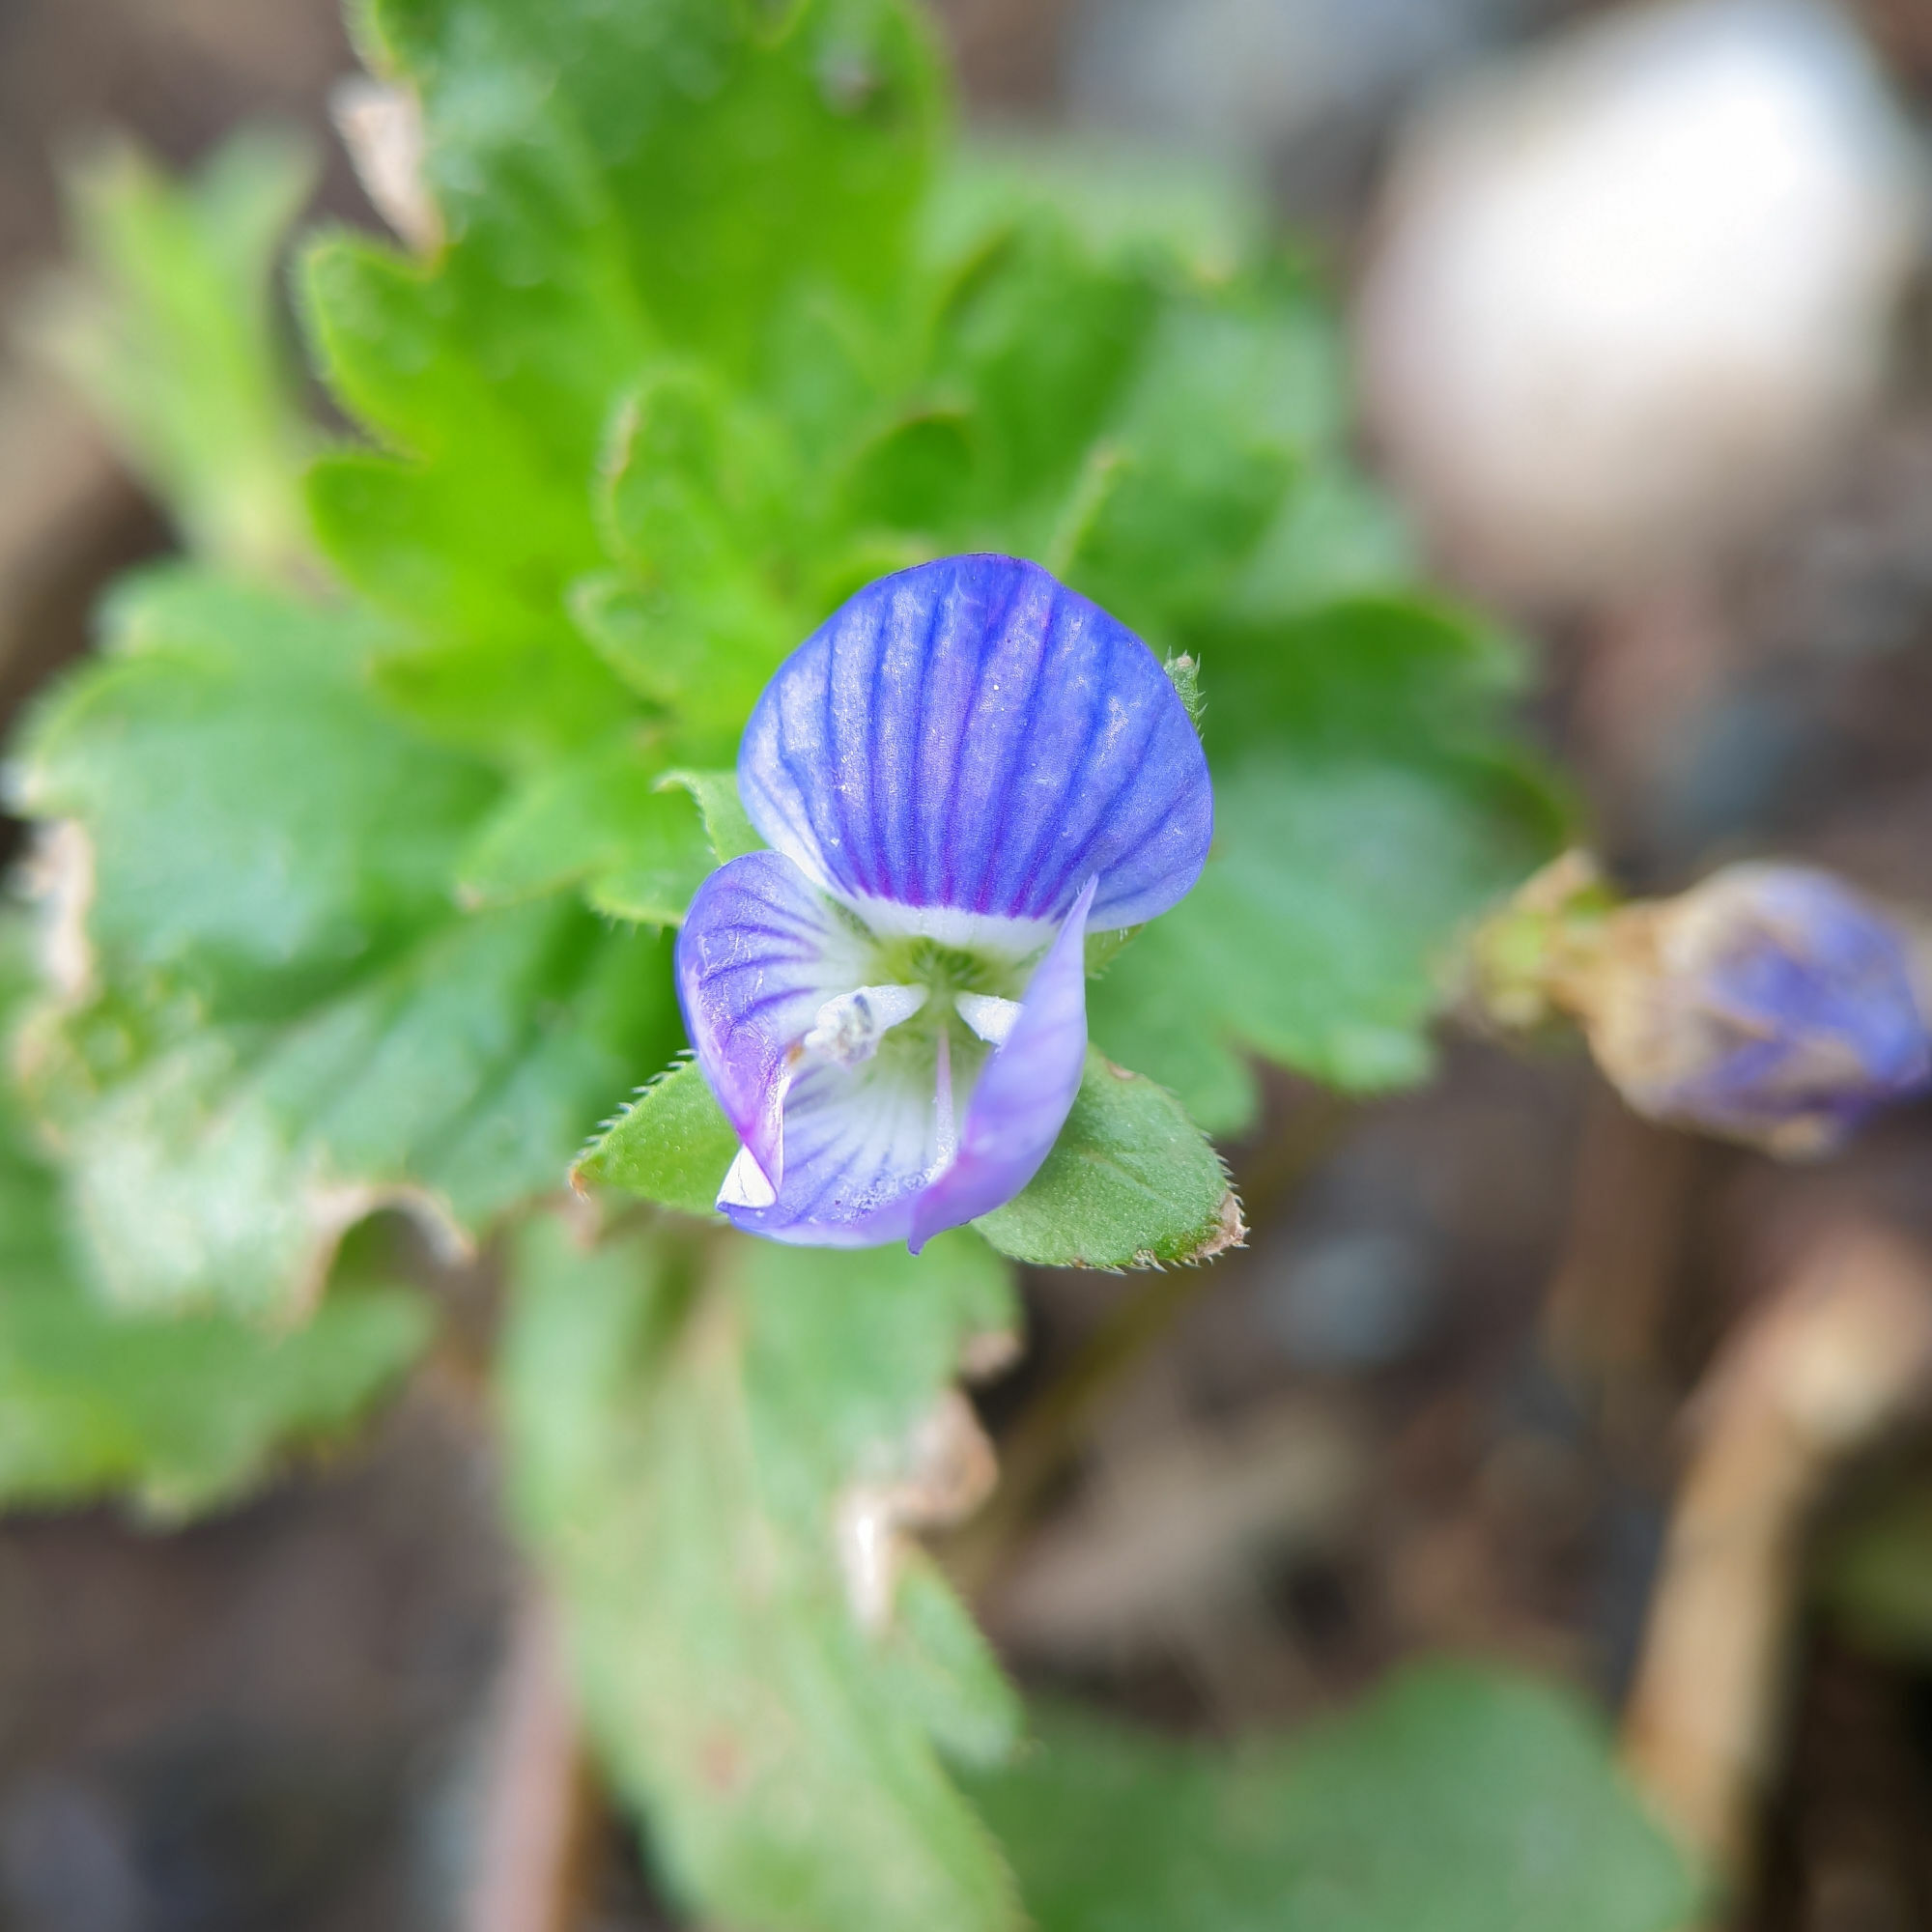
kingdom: Plantae
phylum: Tracheophyta
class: Magnoliopsida
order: Lamiales
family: Plantaginaceae
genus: Veronica
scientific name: Veronica persica
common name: Common field-speedwell
